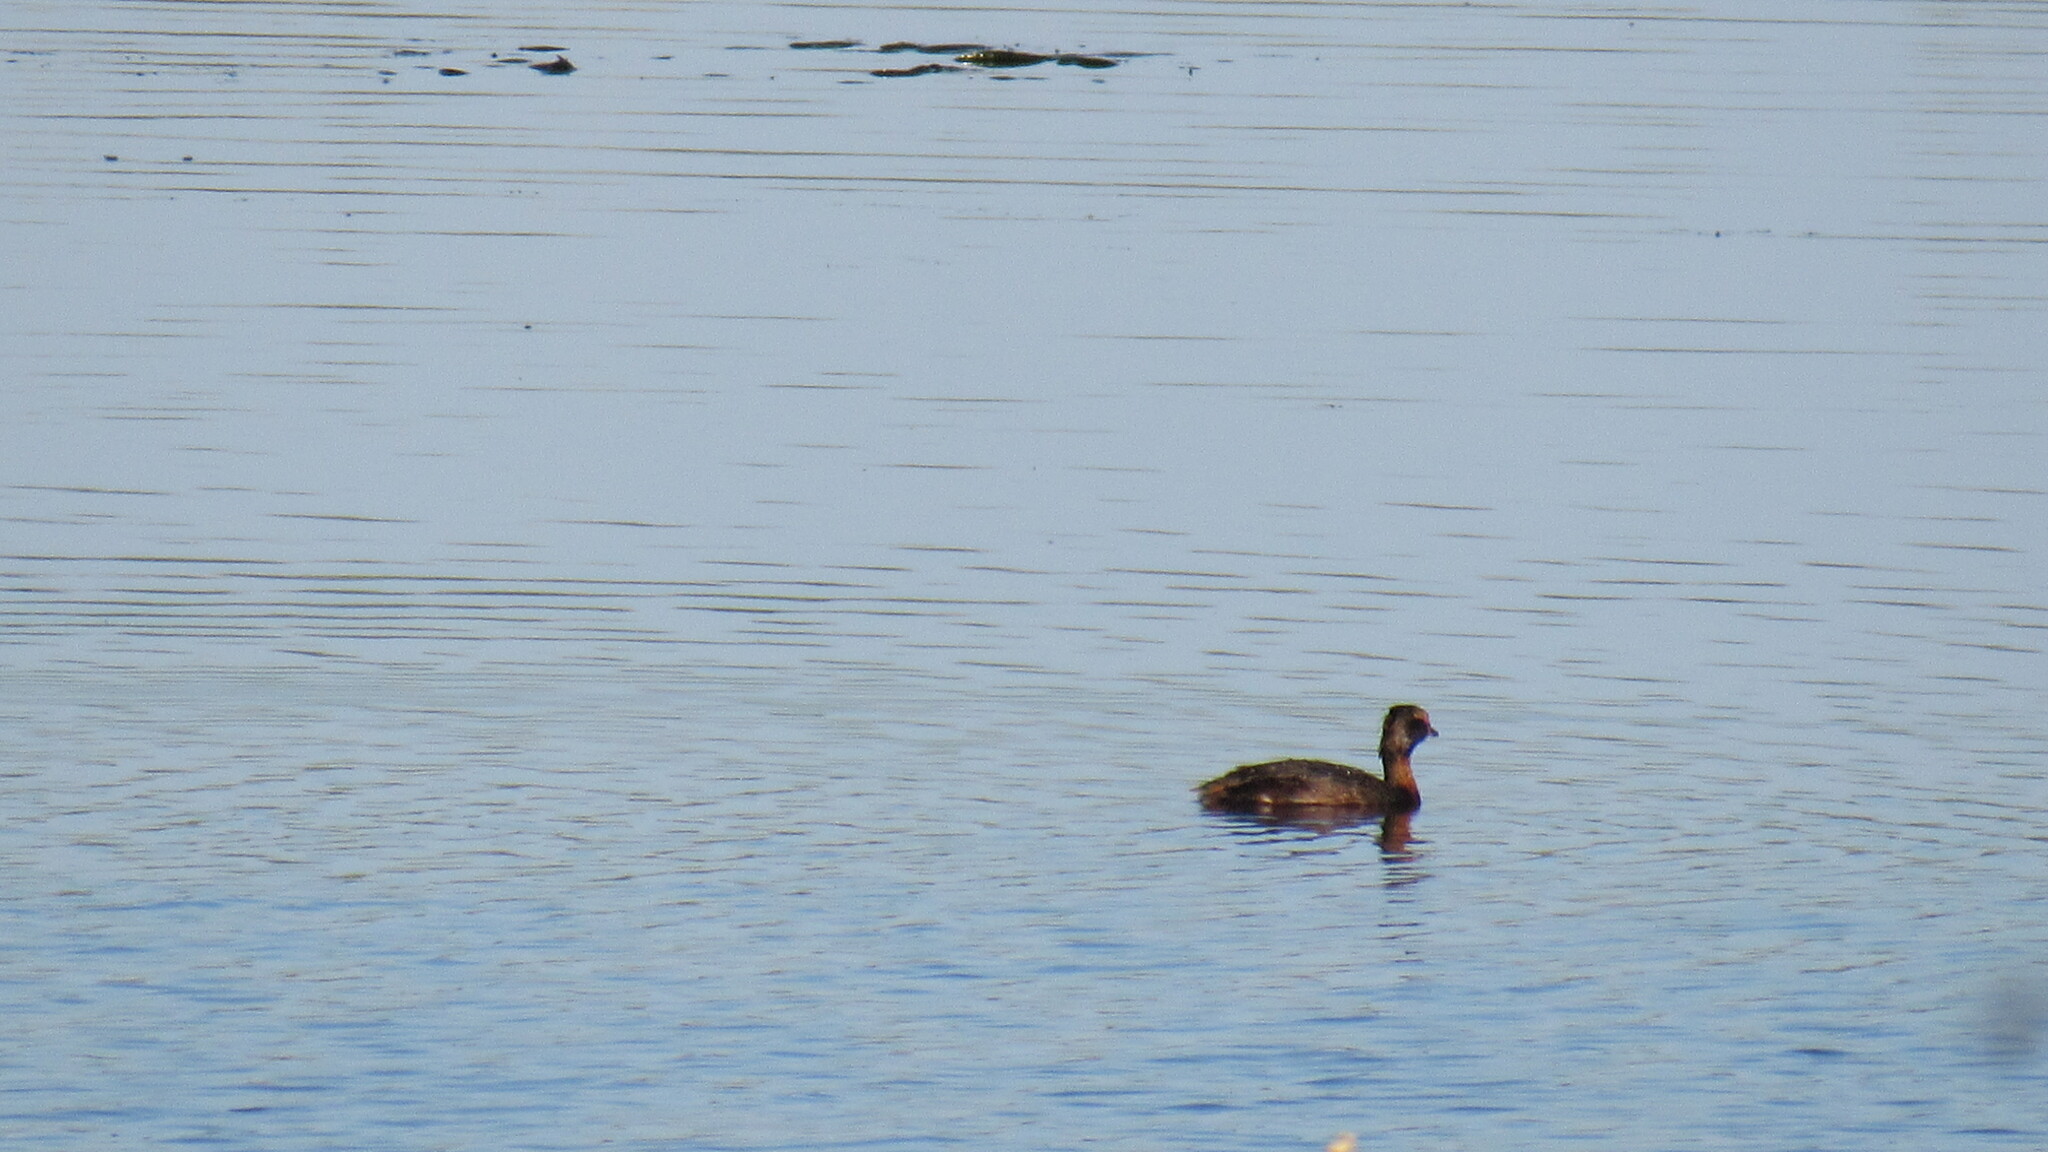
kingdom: Animalia
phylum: Chordata
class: Aves
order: Podicipediformes
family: Podicipedidae
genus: Podiceps
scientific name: Podiceps auritus
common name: Horned grebe
